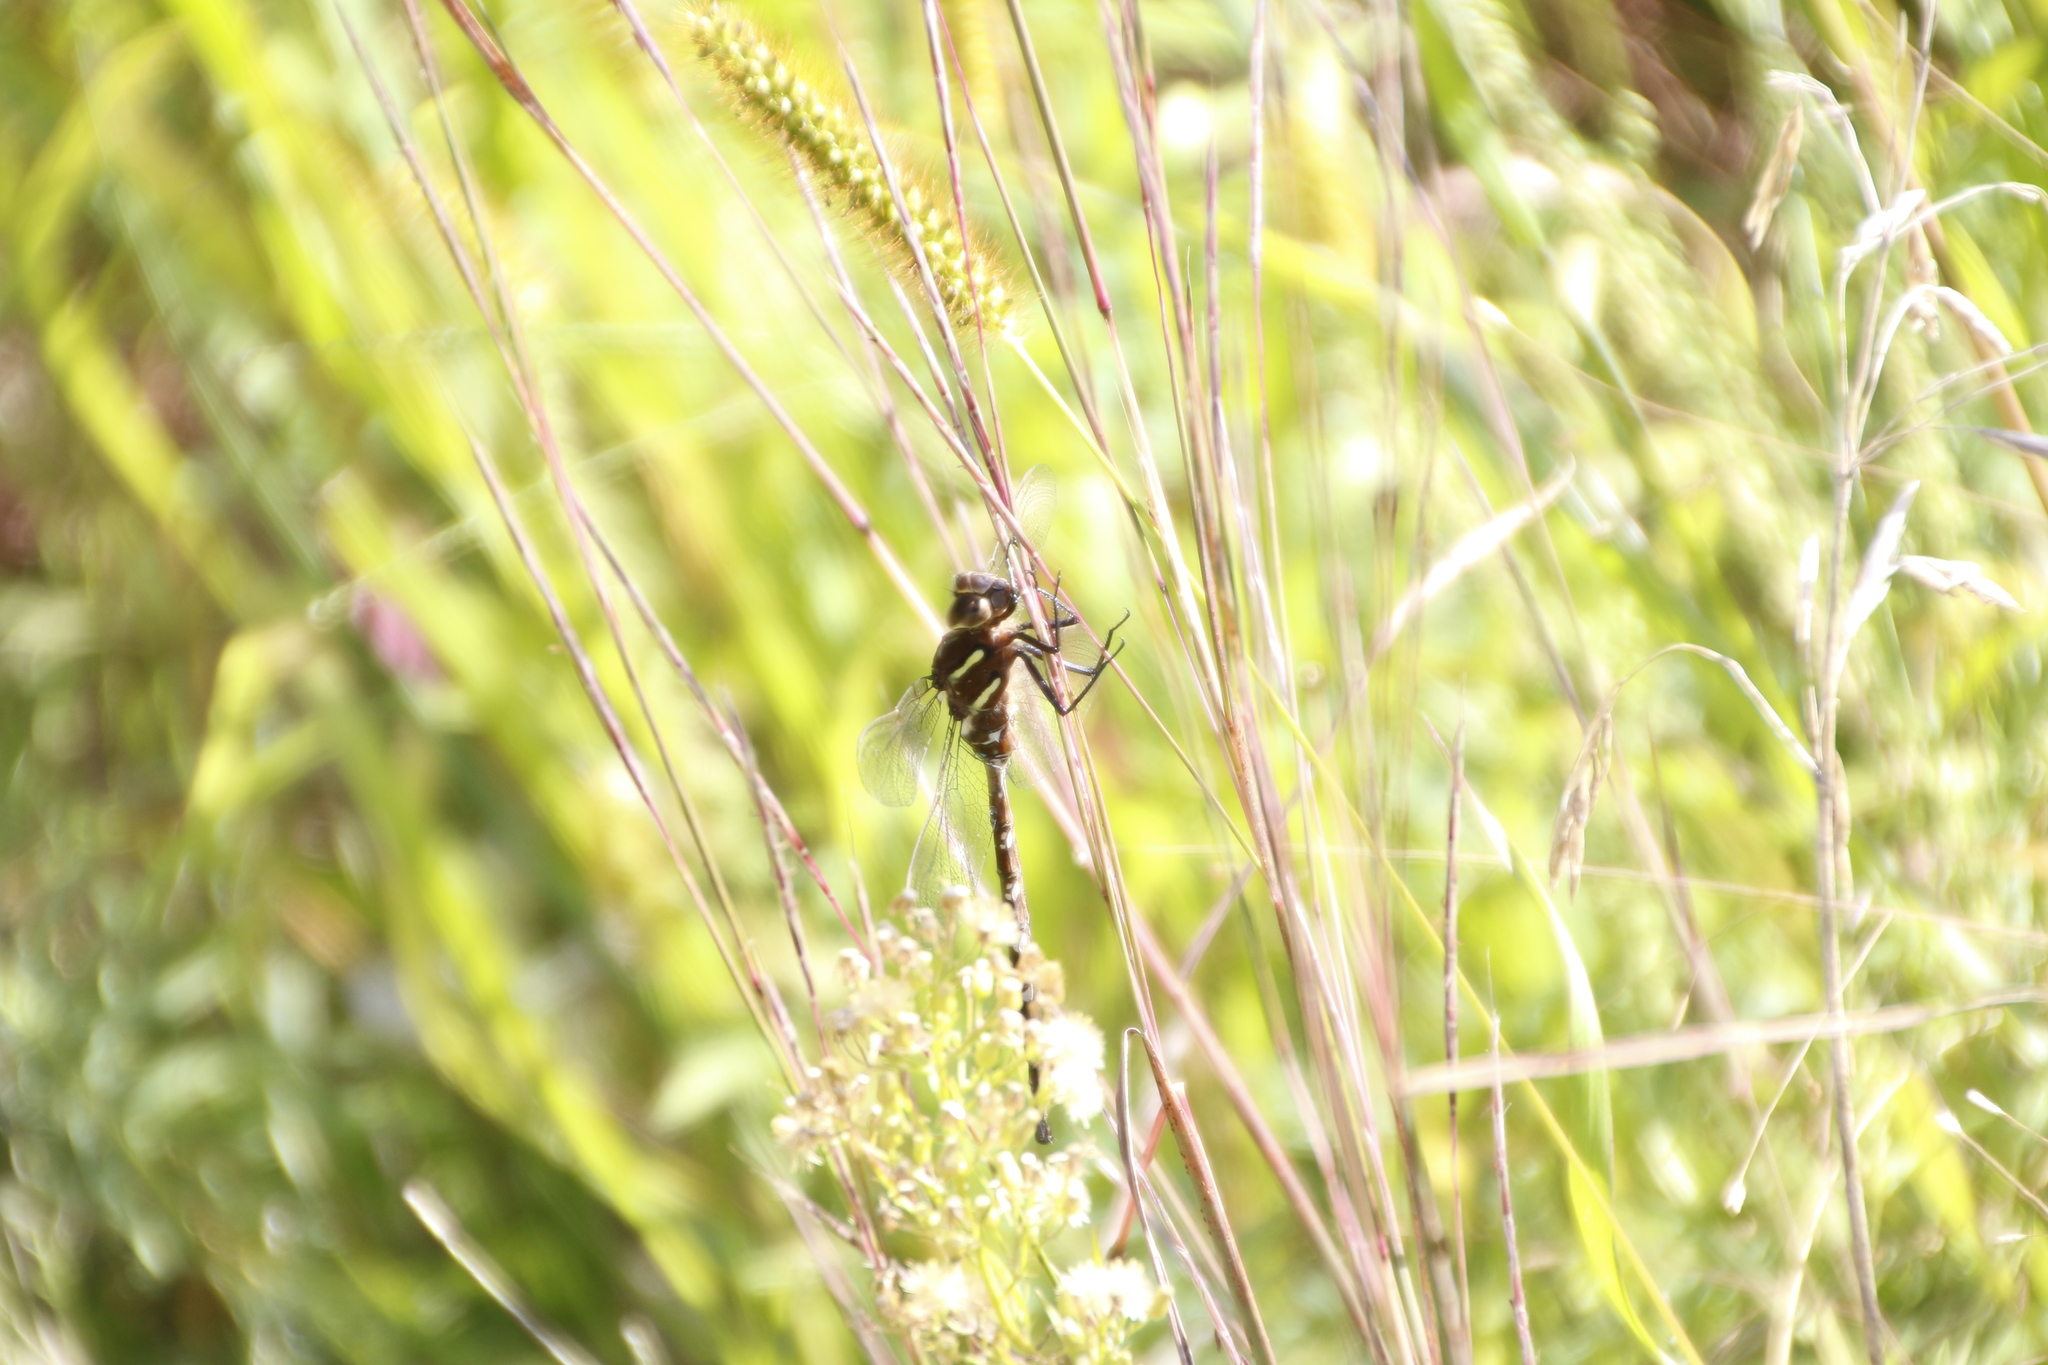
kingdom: Animalia
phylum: Arthropoda
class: Insecta
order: Odonata
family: Aeshnidae
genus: Aeshna
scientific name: Aeshna umbrosa
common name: Shadow darner
